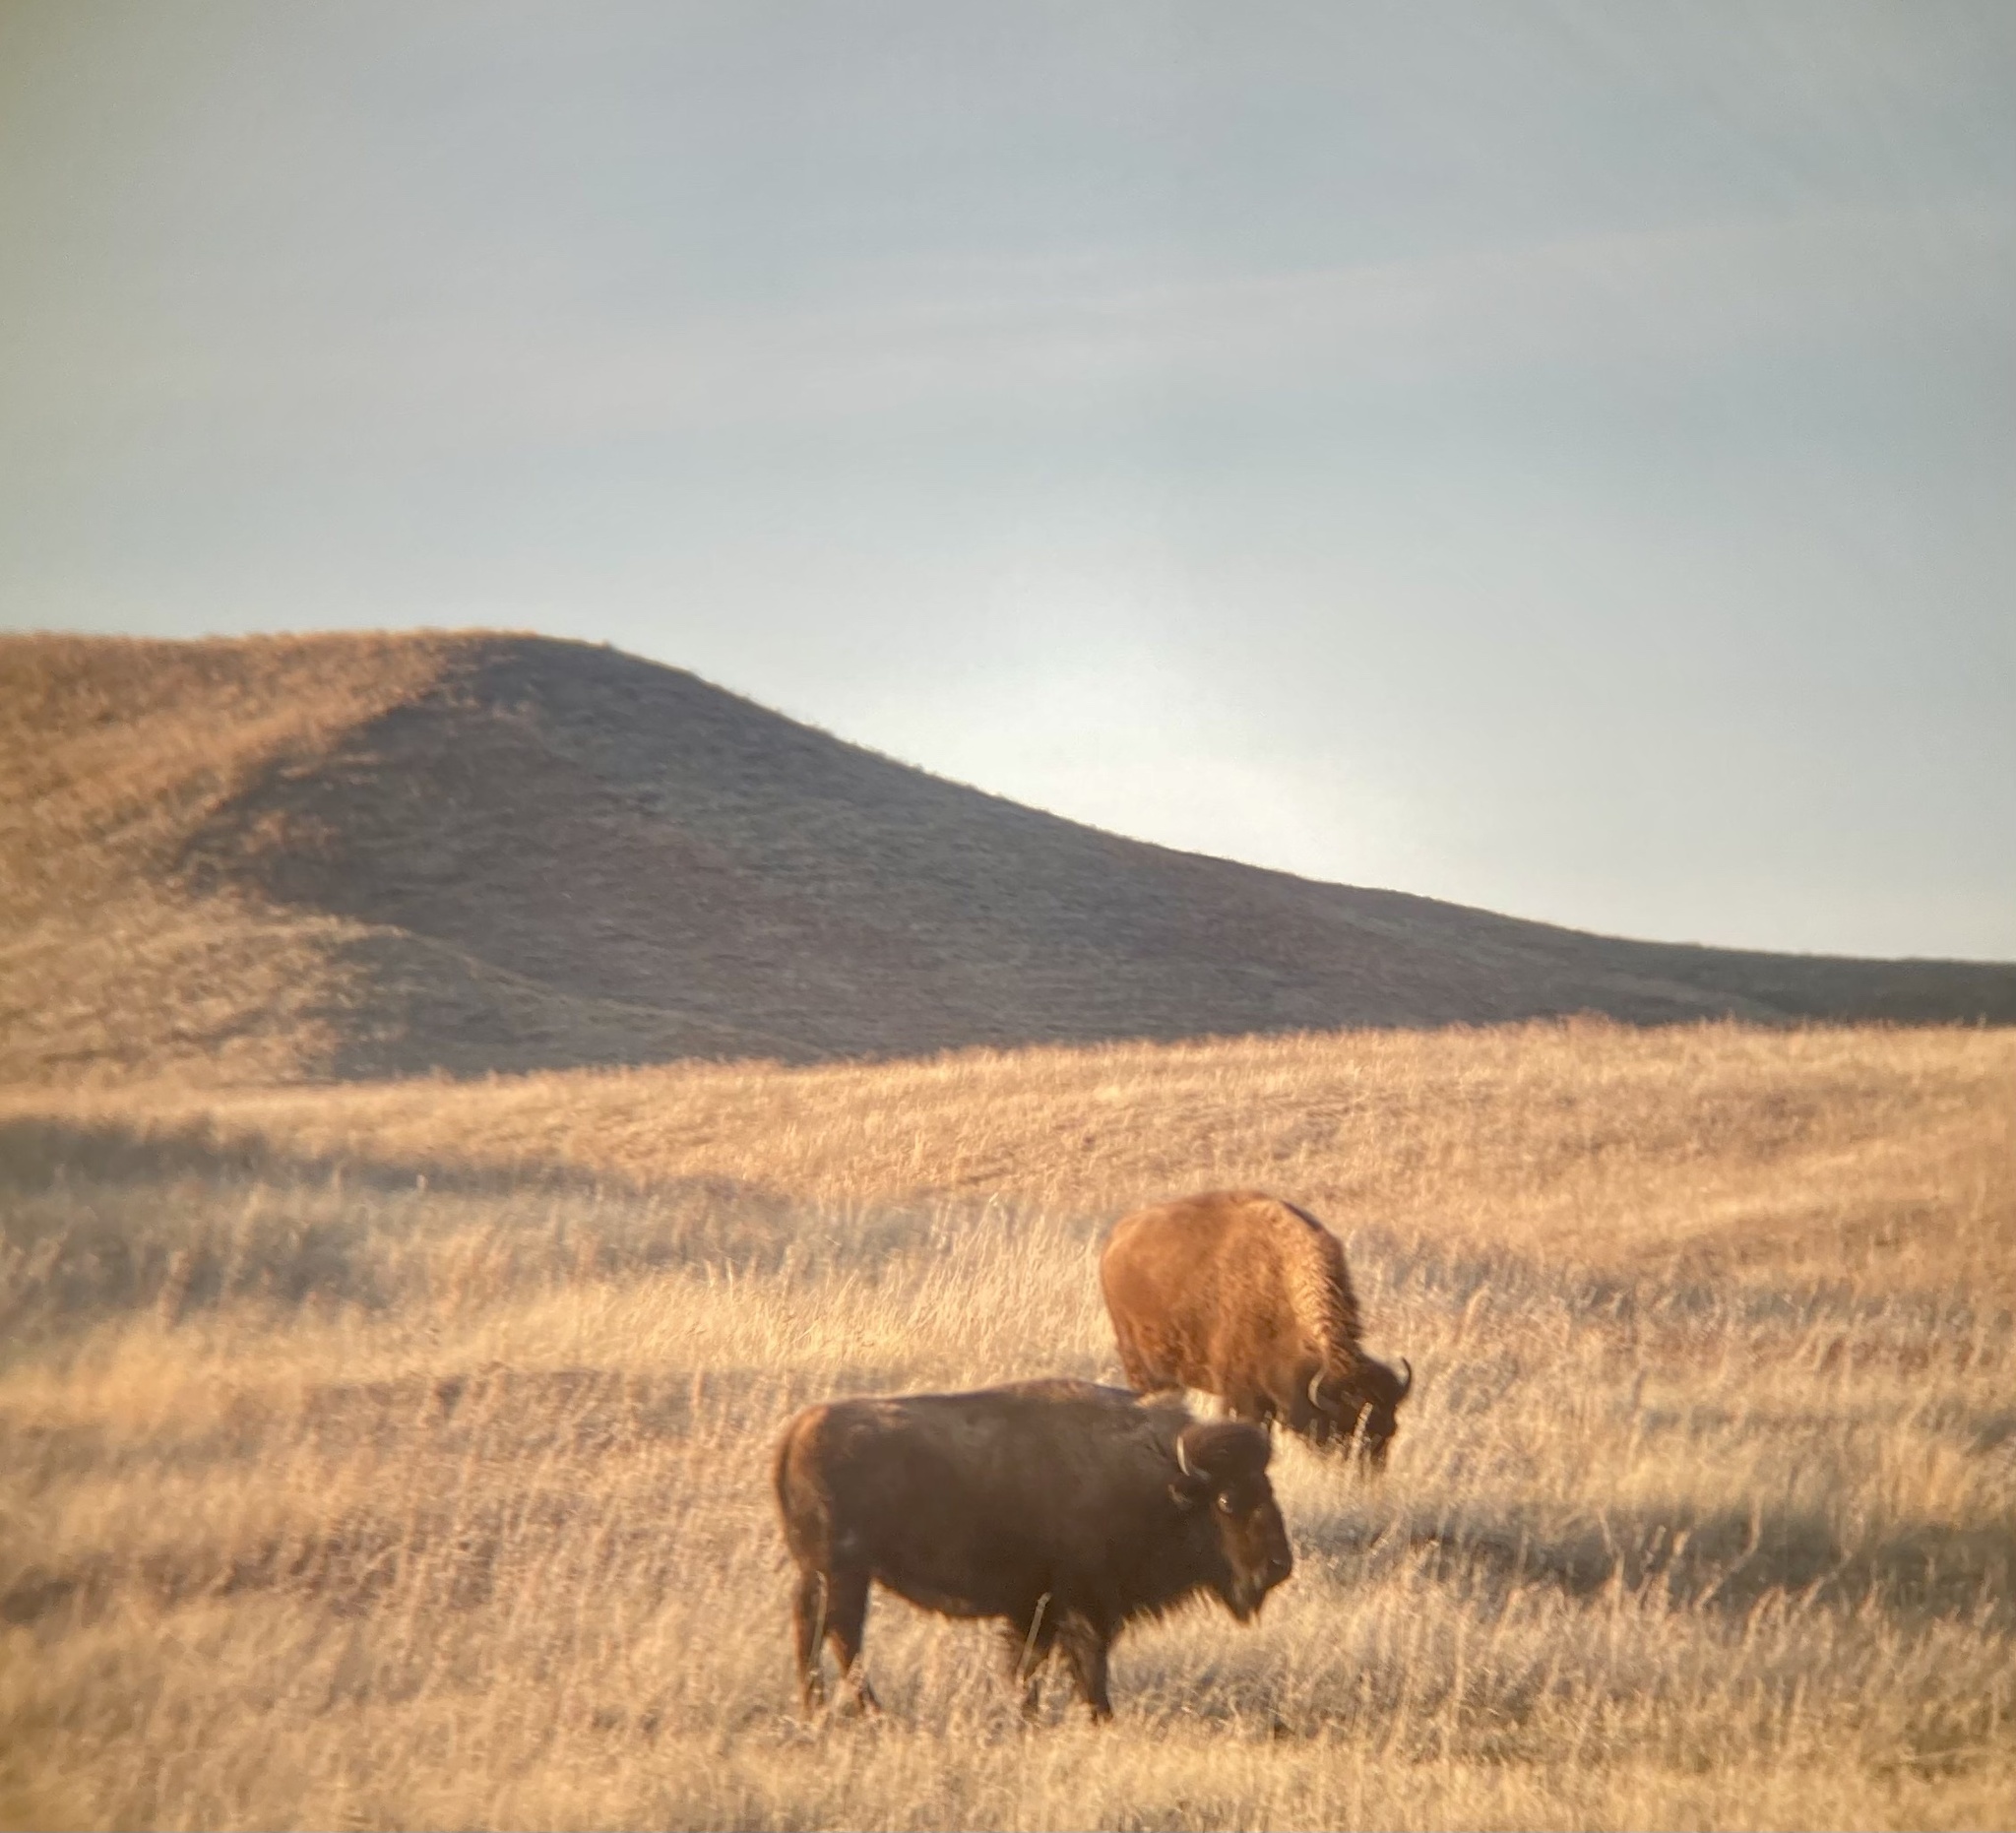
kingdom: Animalia
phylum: Chordata
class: Mammalia
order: Artiodactyla
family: Bovidae
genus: Bison
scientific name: Bison bison
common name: American bison
